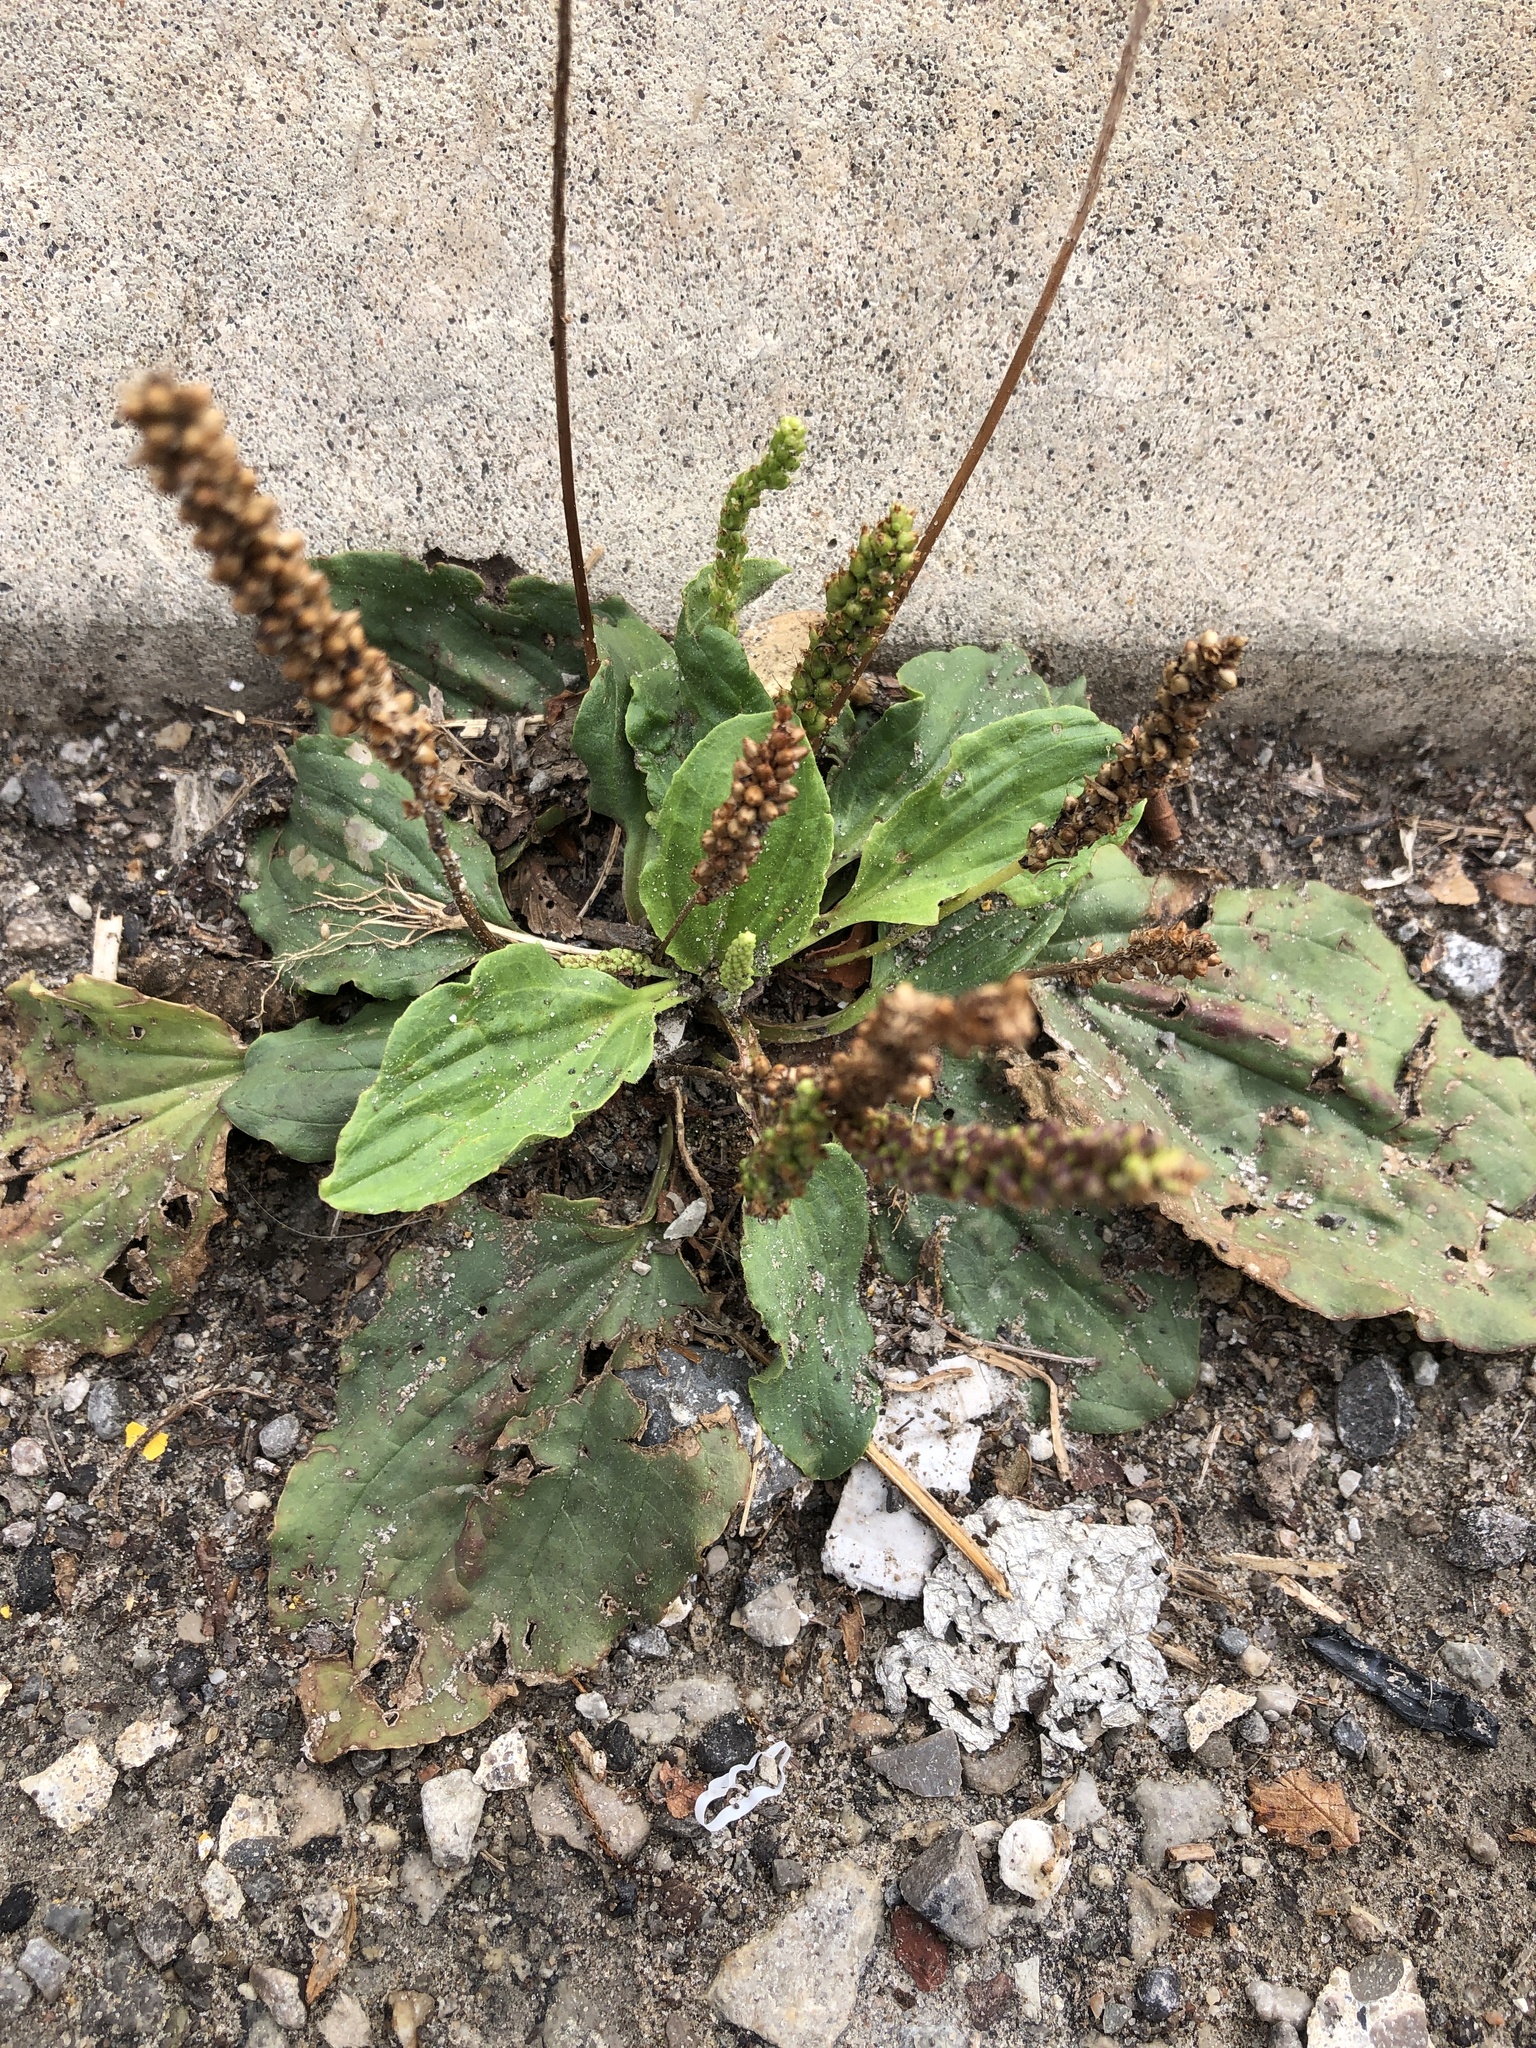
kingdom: Plantae
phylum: Tracheophyta
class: Magnoliopsida
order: Lamiales
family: Plantaginaceae
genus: Plantago
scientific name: Plantago major
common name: Common plantain
